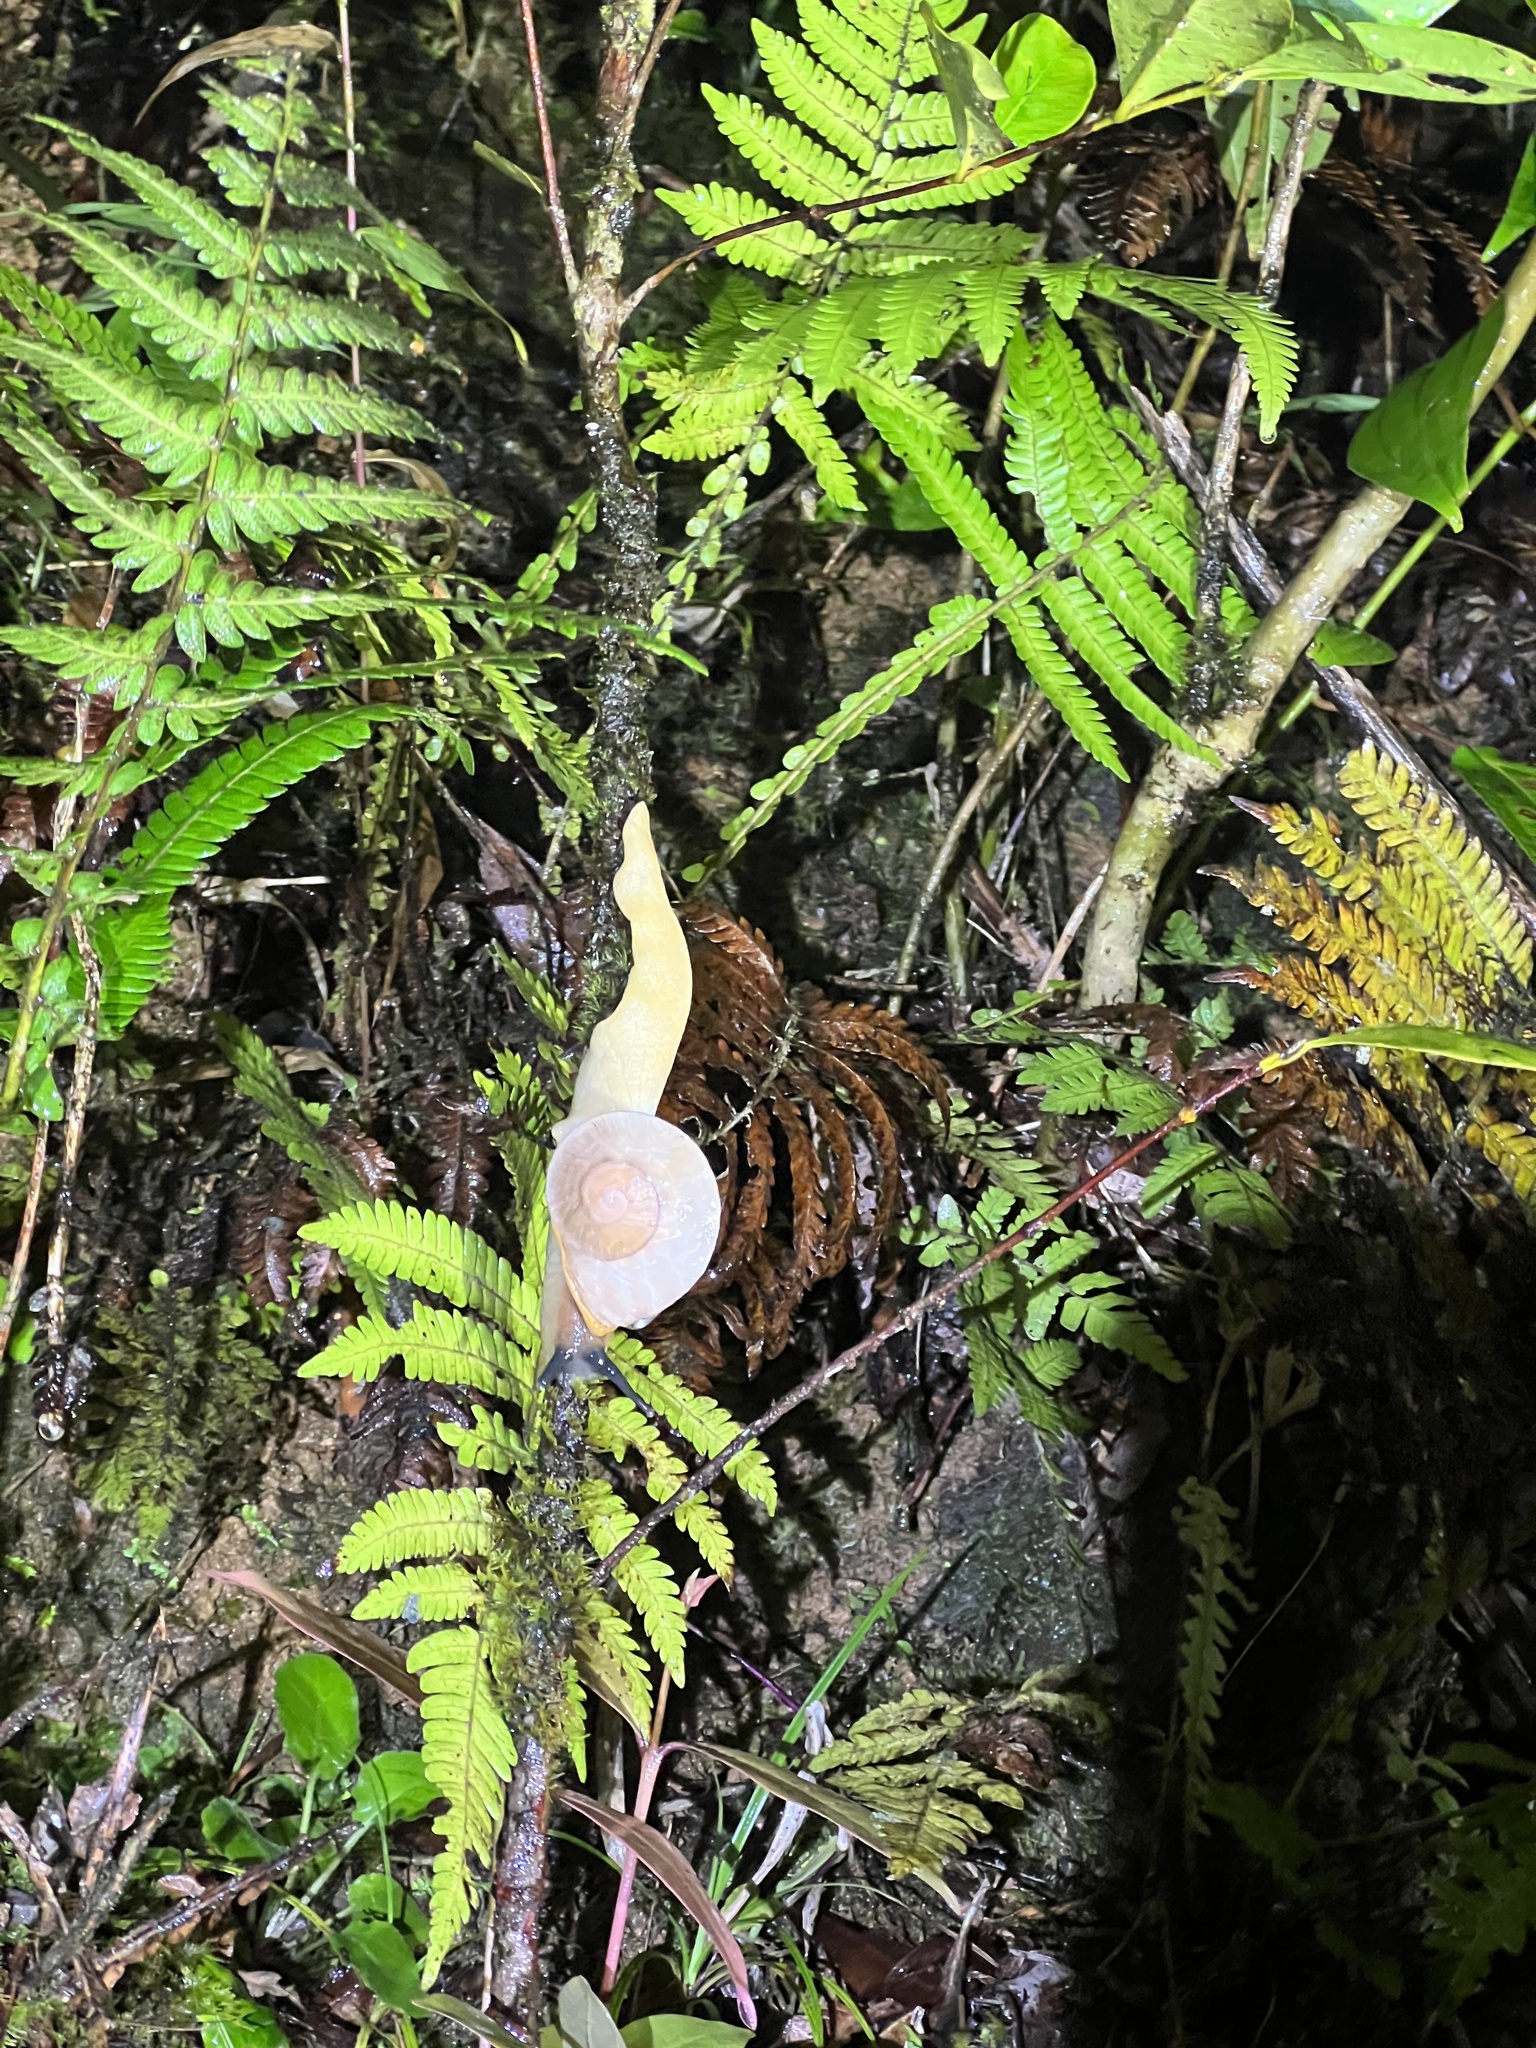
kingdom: Animalia
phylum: Mollusca
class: Gastropoda
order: Stylommatophora
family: Sagdidae
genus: Parthena
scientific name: Parthena acutangula
